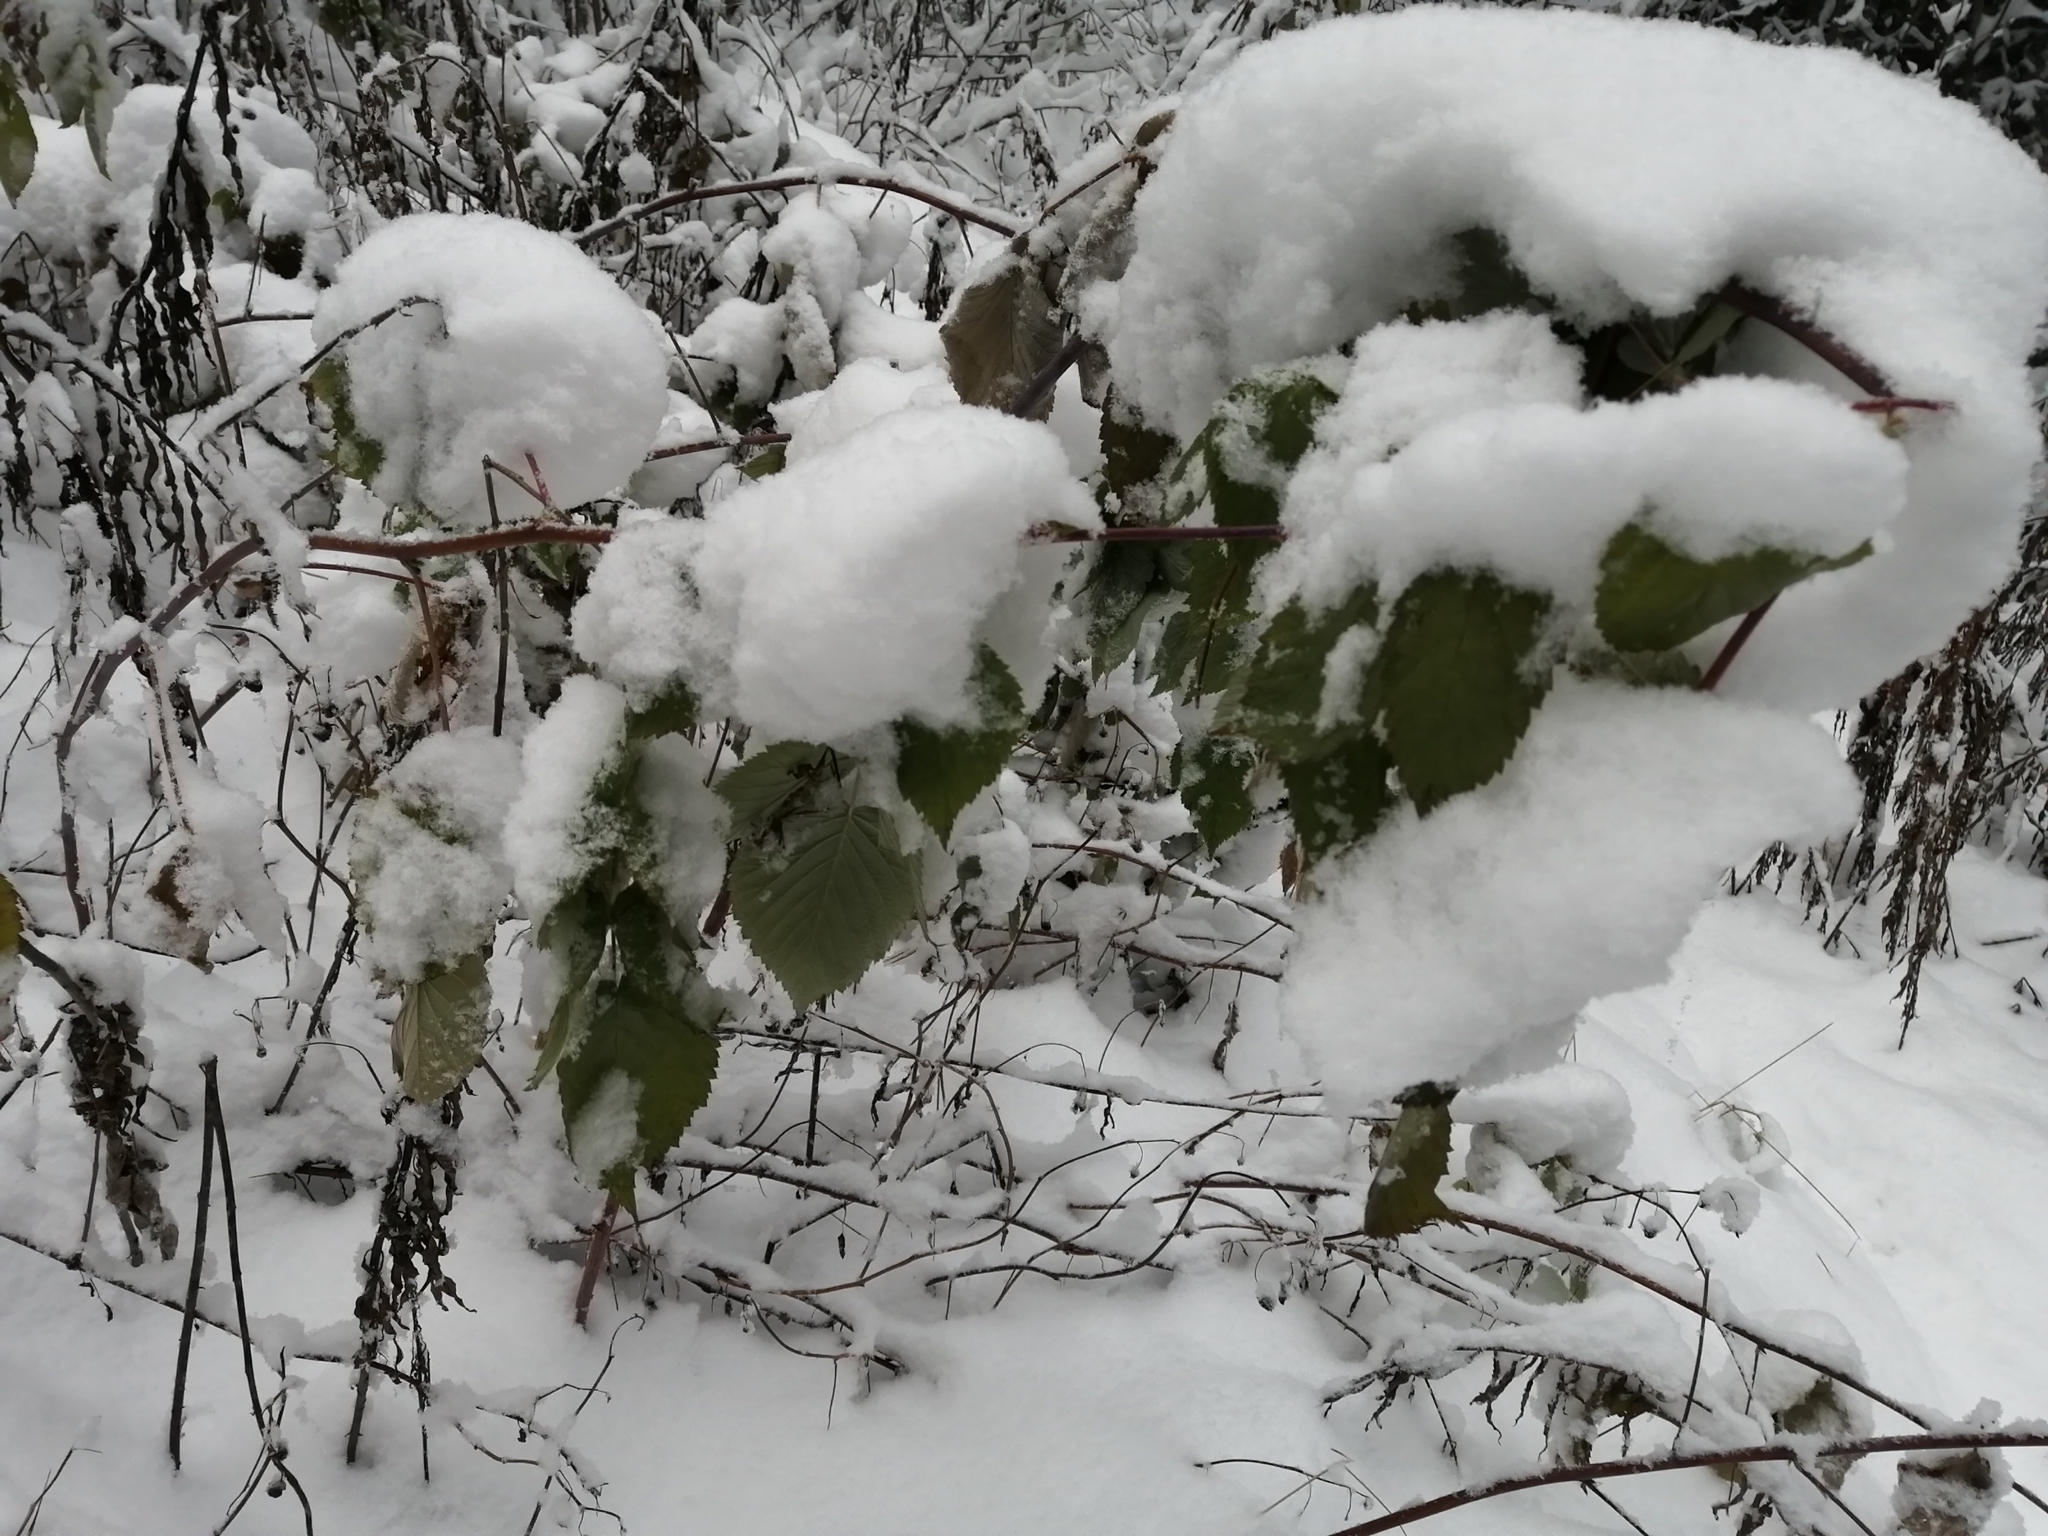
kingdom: Plantae
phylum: Tracheophyta
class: Magnoliopsida
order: Rosales
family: Rosaceae
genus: Rubus
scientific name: Rubus idaeus
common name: Raspberry
